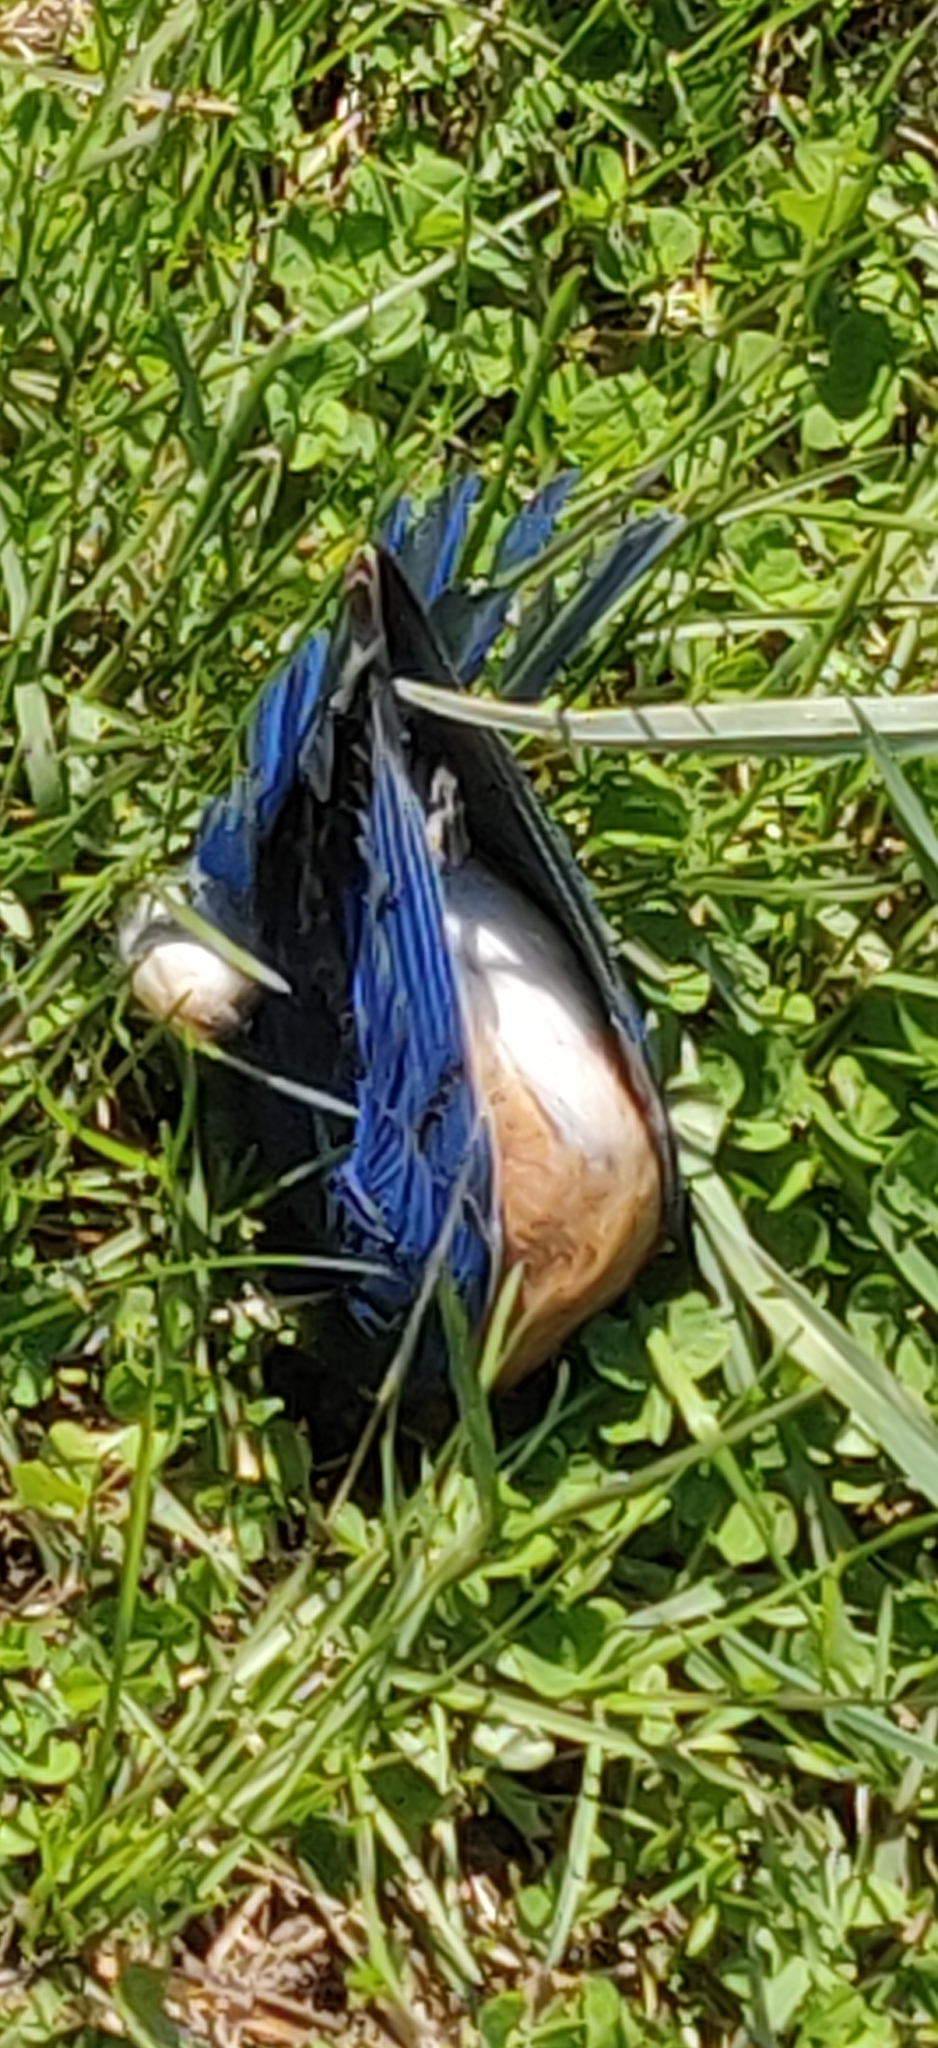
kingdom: Animalia
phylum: Chordata
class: Aves
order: Passeriformes
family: Turdidae
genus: Sialia
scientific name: Sialia sialis
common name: Eastern bluebird
